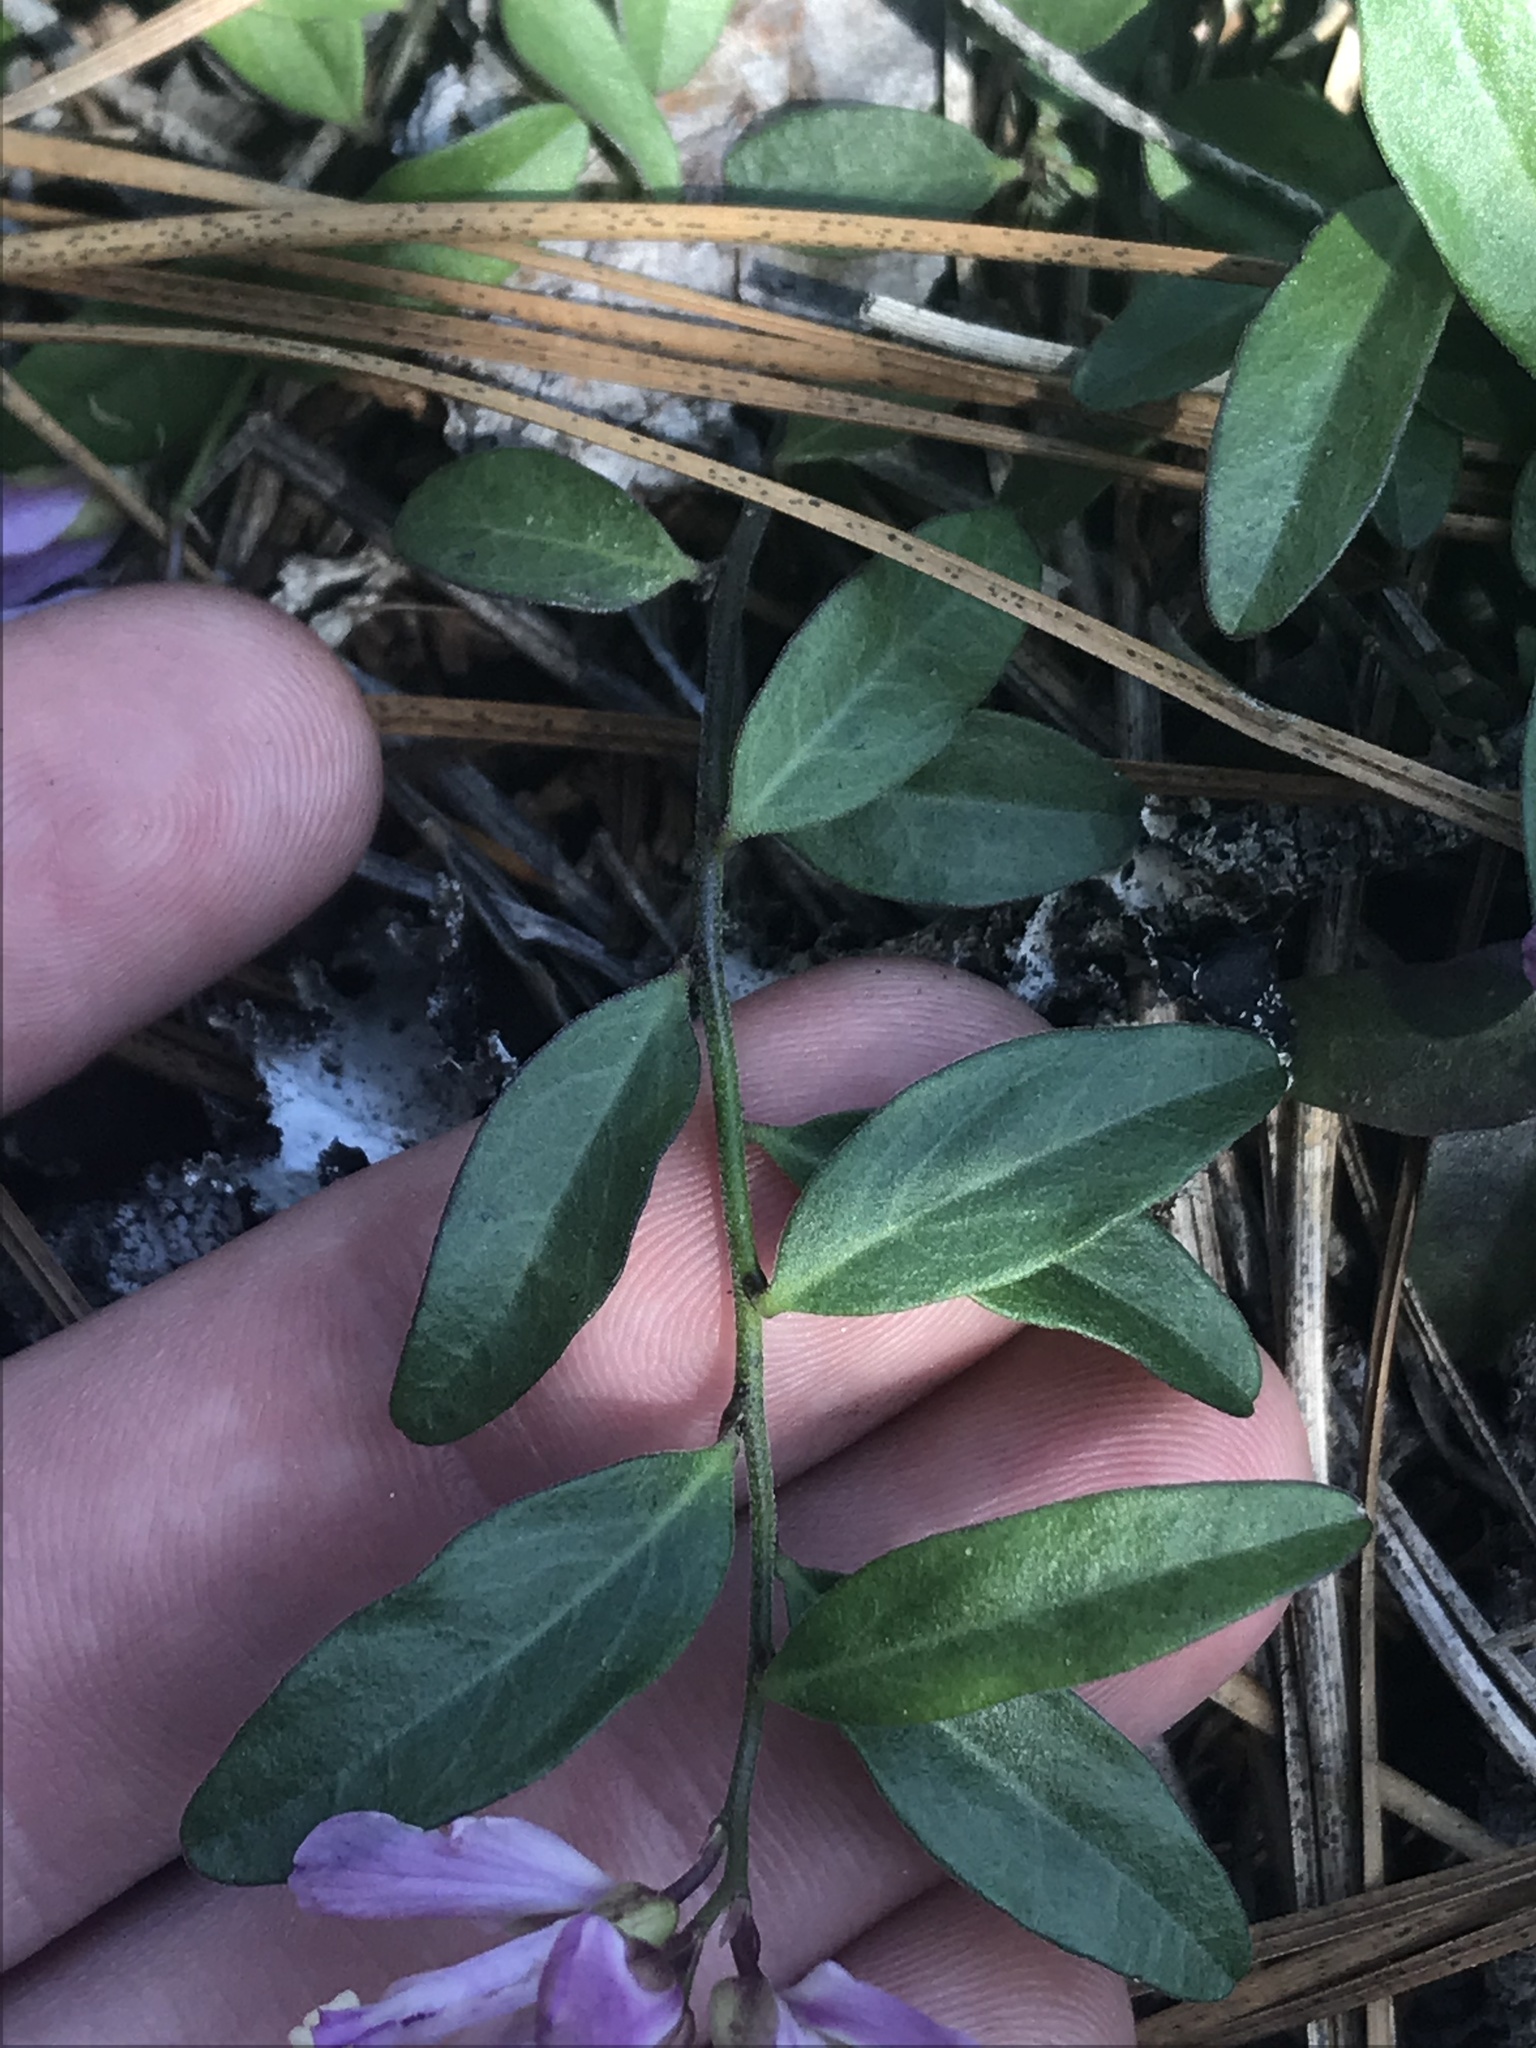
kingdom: Plantae
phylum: Tracheophyta
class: Magnoliopsida
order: Fabales
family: Polygalaceae
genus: Rhinotropis
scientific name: Rhinotropis californica
